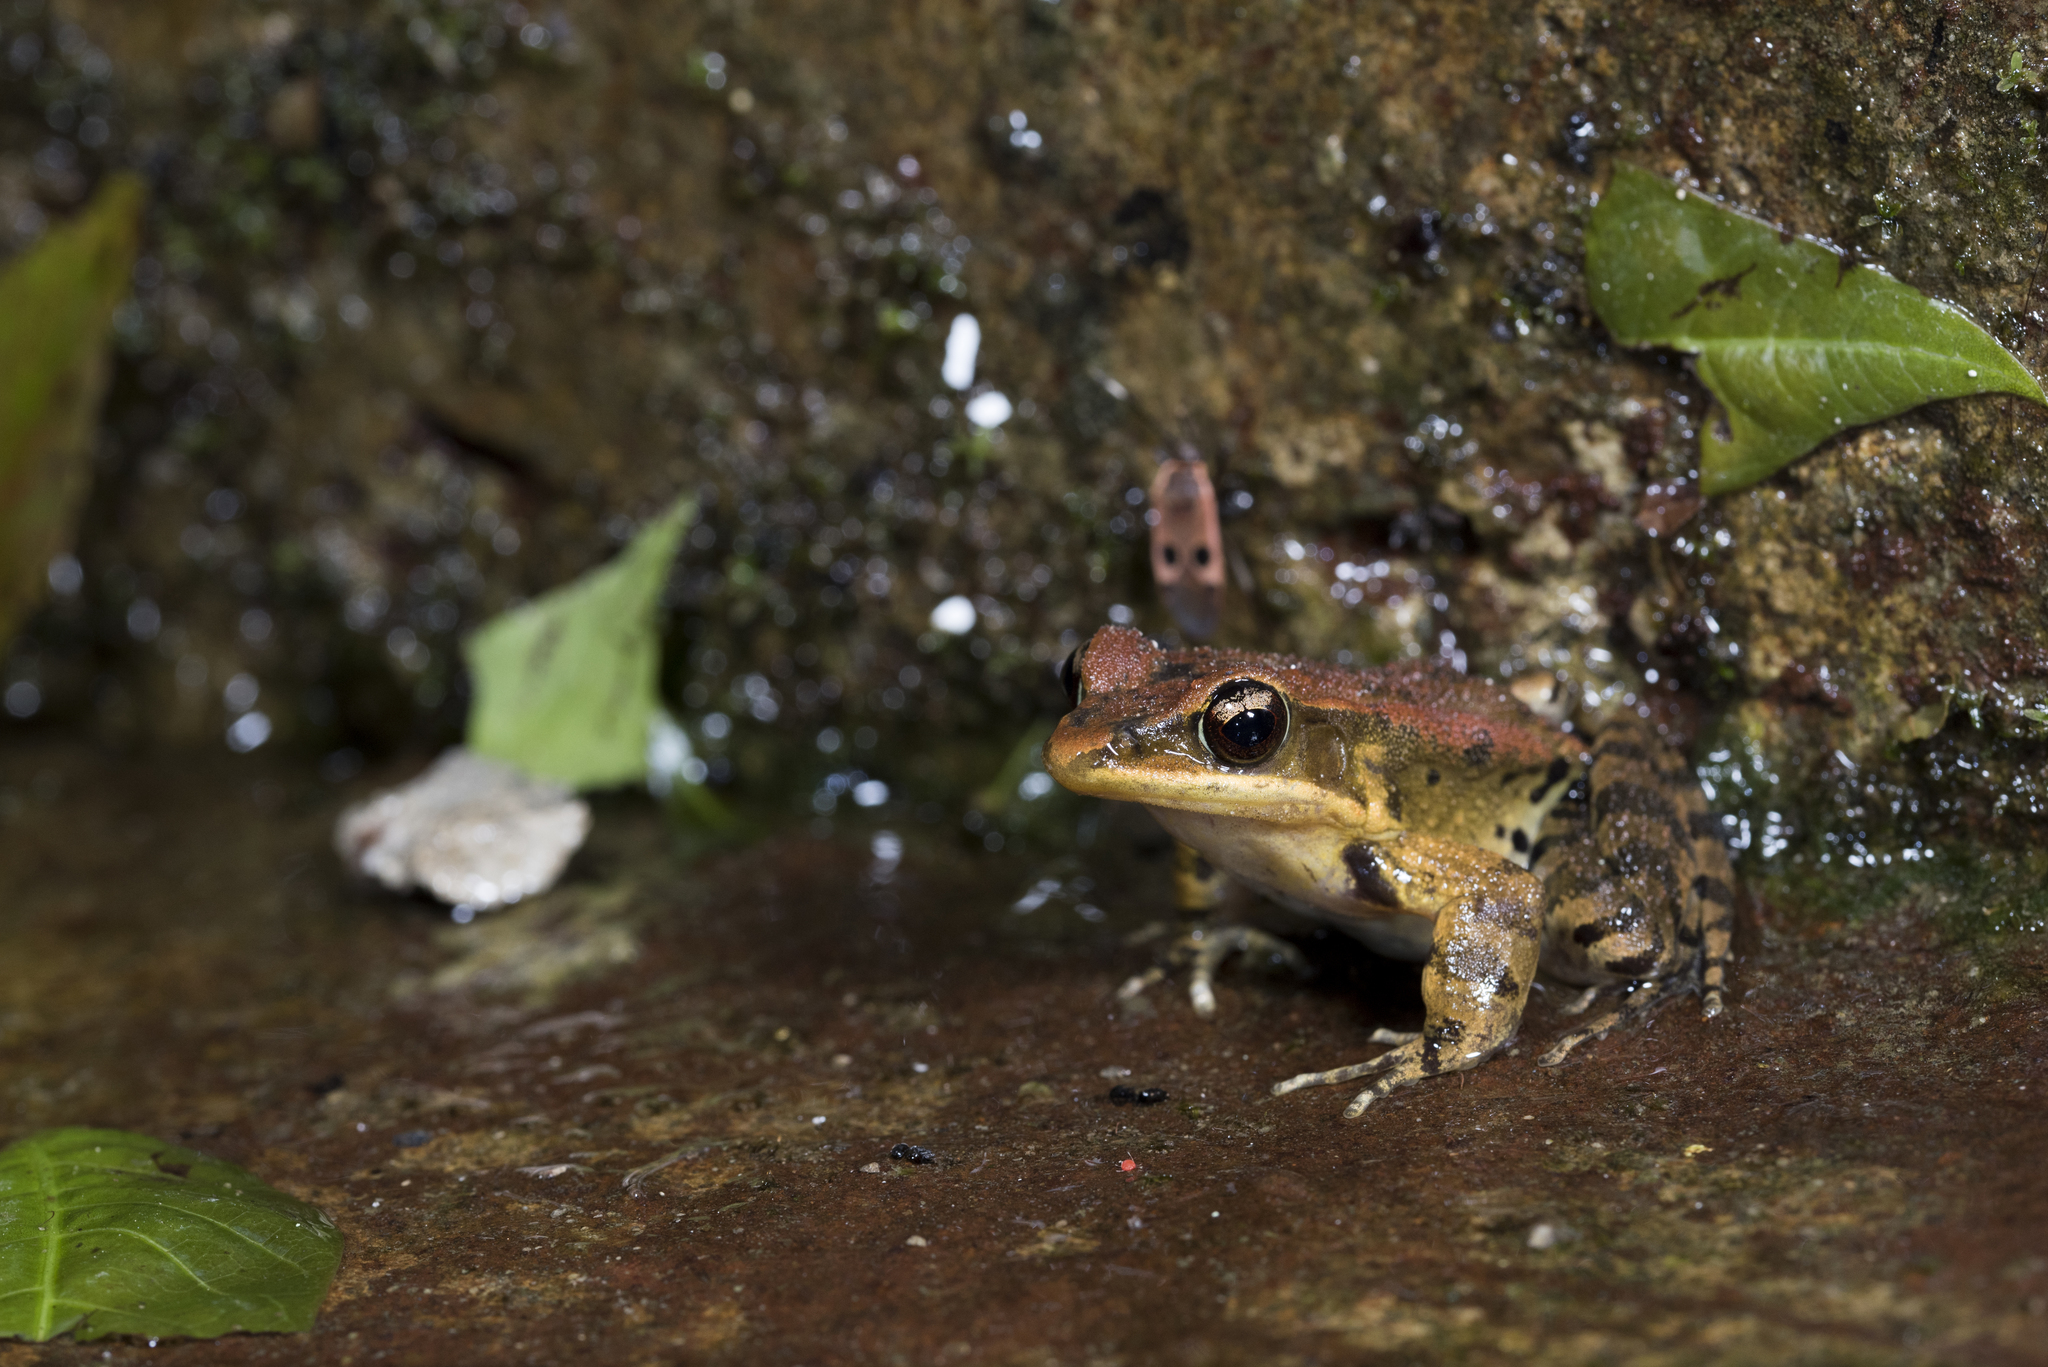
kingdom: Animalia
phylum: Chordata
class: Amphibia
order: Anura
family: Ranidae
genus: Hylarana
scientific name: Hylarana latouchii
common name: Broad-folded frog
